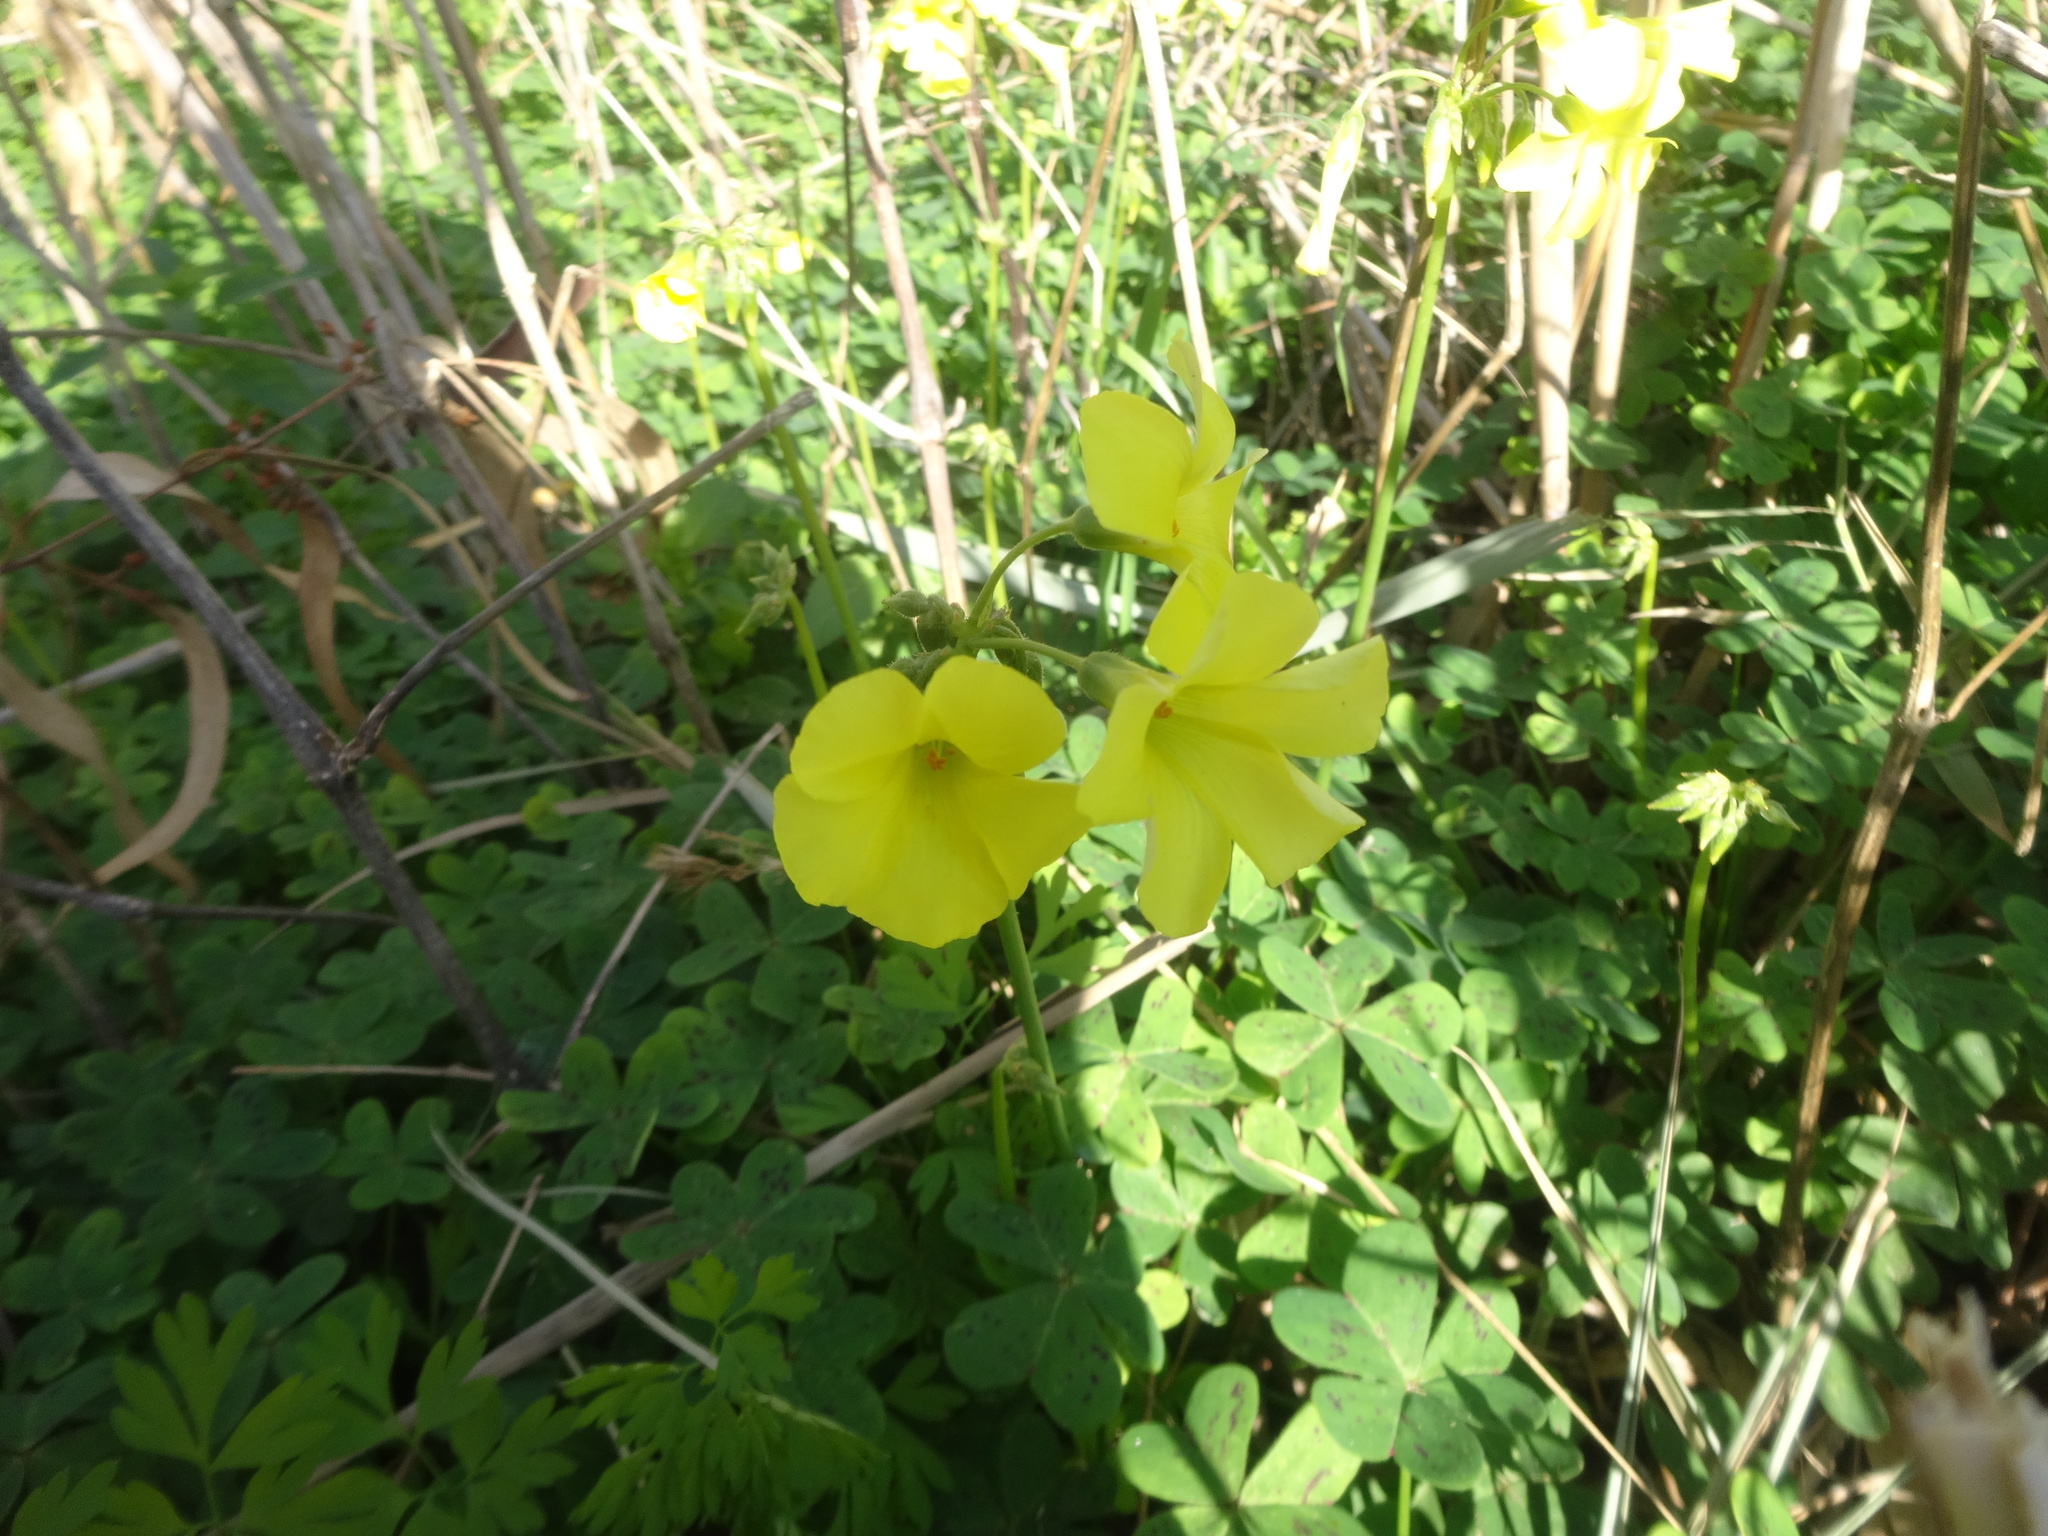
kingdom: Plantae
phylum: Tracheophyta
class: Magnoliopsida
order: Oxalidales
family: Oxalidaceae
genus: Oxalis
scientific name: Oxalis pes-caprae
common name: Bermuda-buttercup
